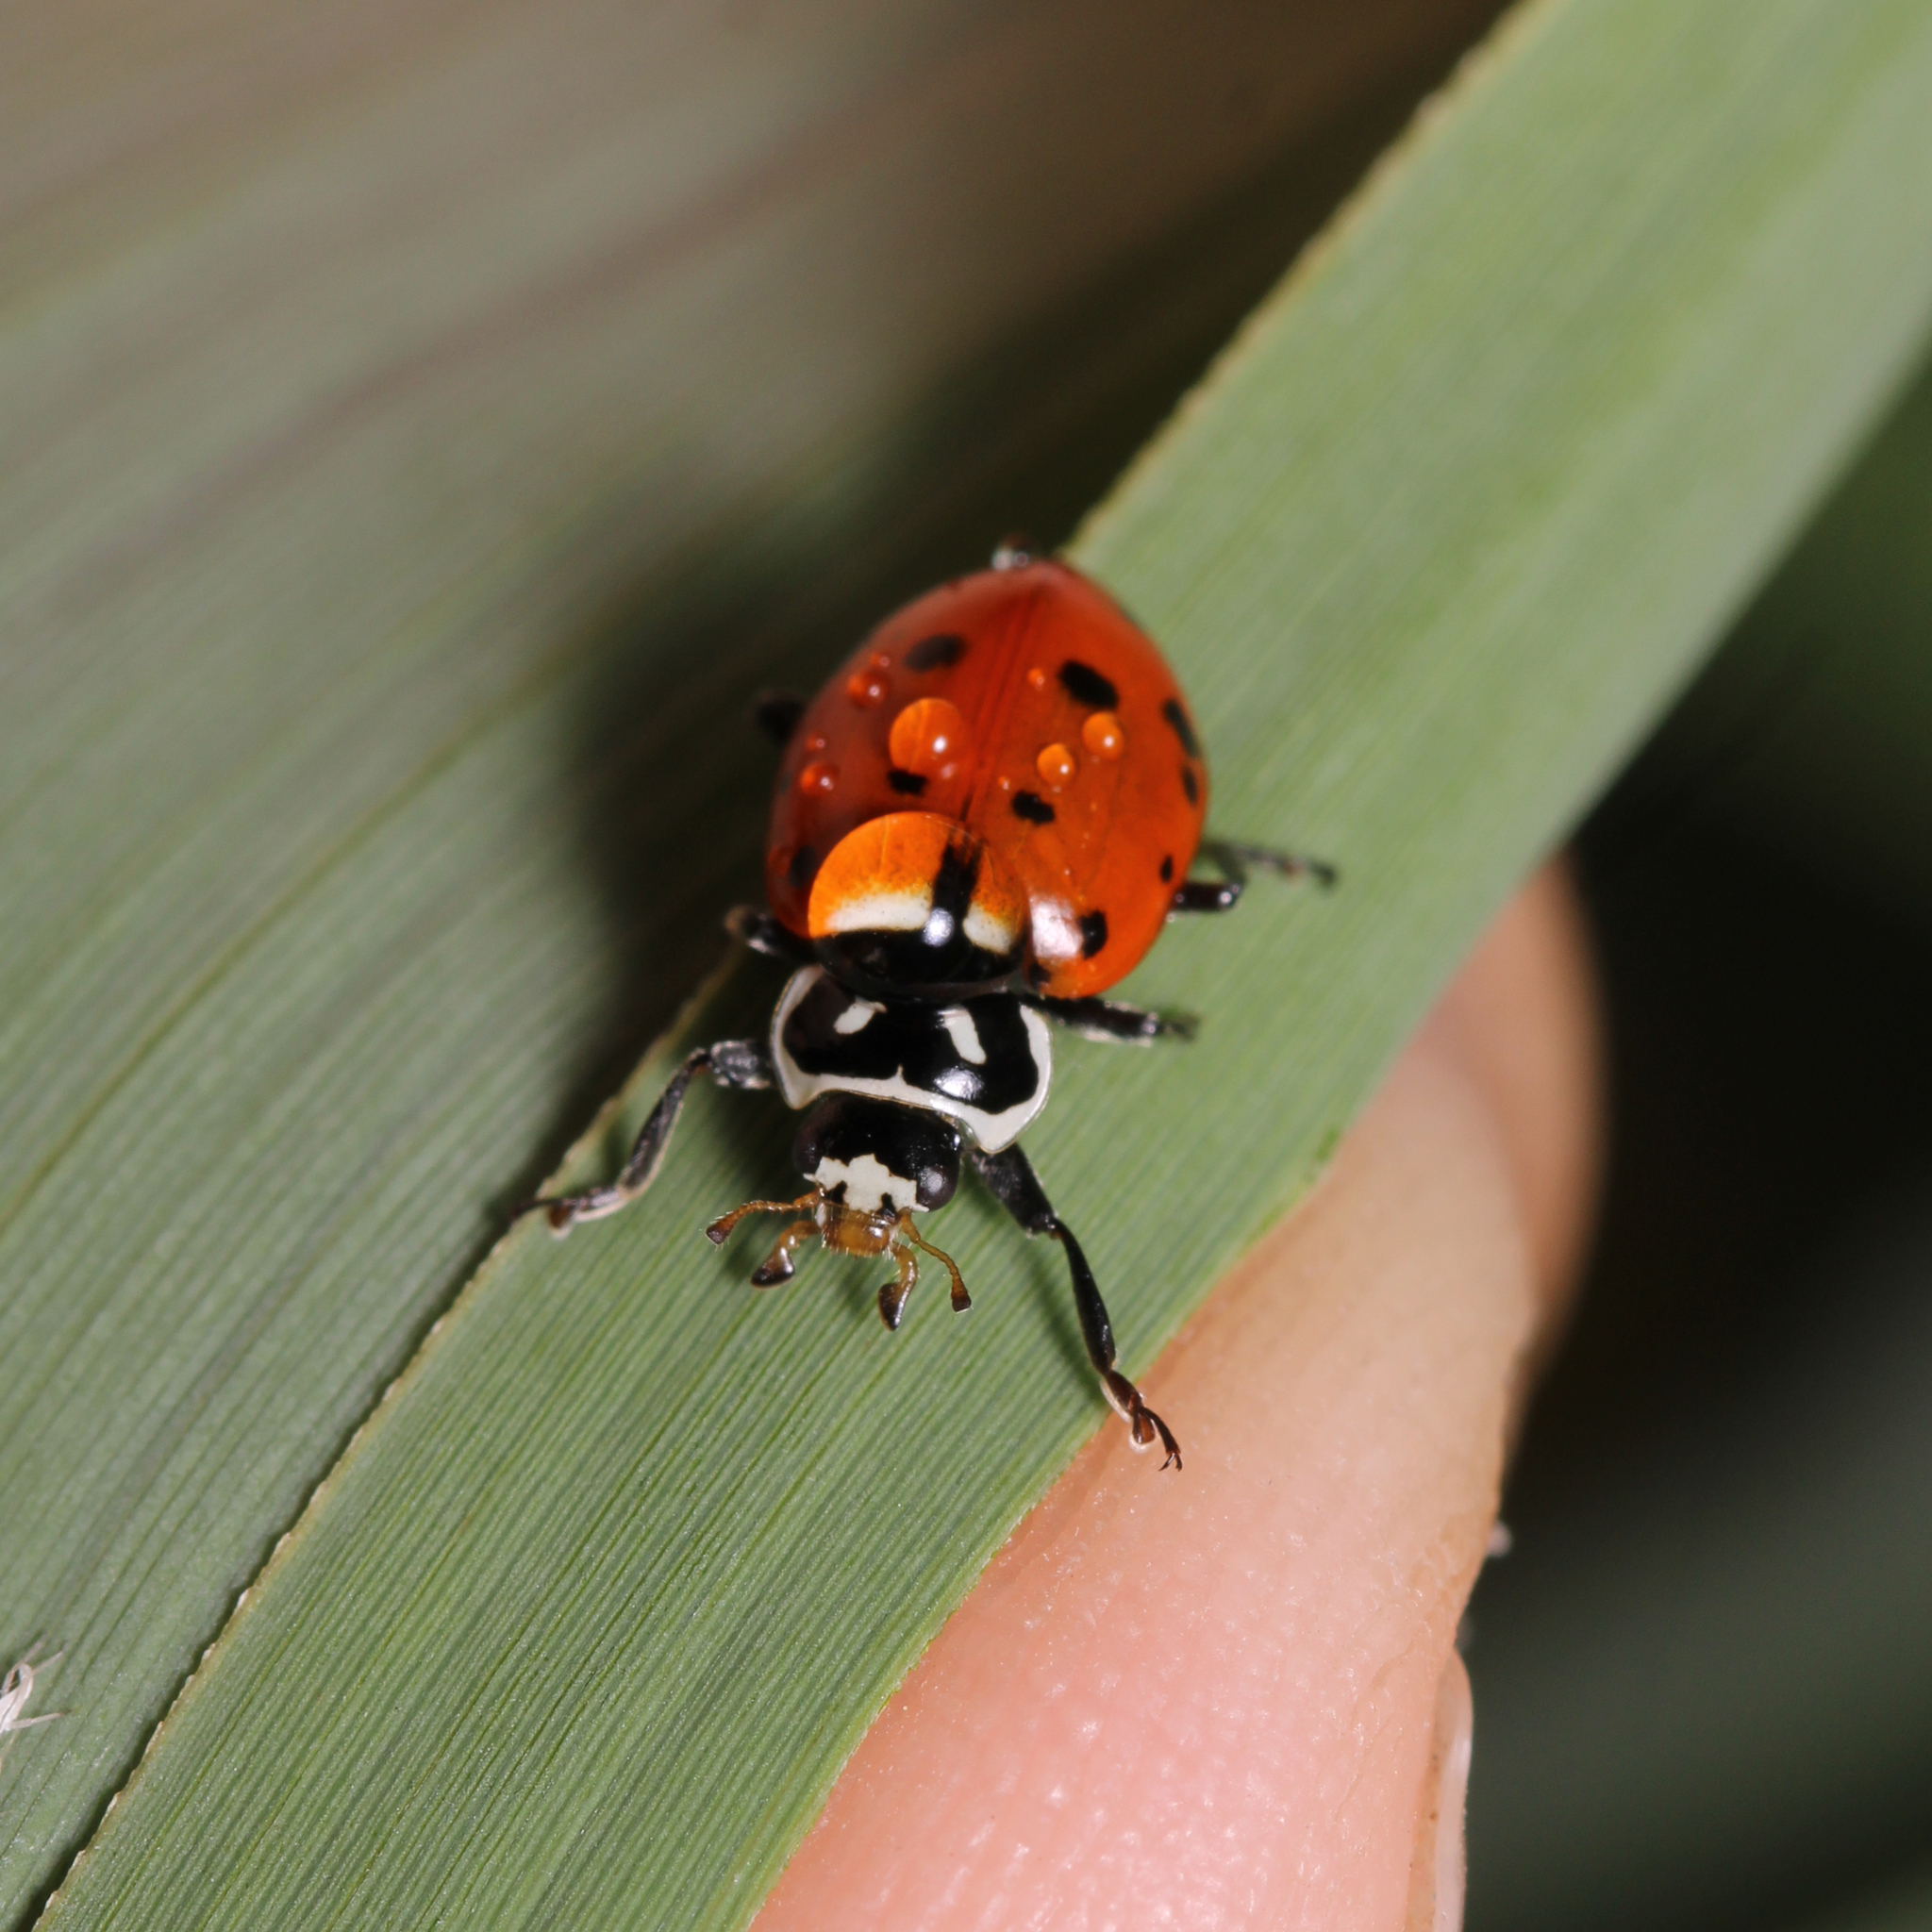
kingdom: Animalia
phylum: Arthropoda
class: Insecta
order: Coleoptera
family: Coccinellidae
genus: Hippodamia
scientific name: Hippodamia convergens
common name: Convergent lady beetle
